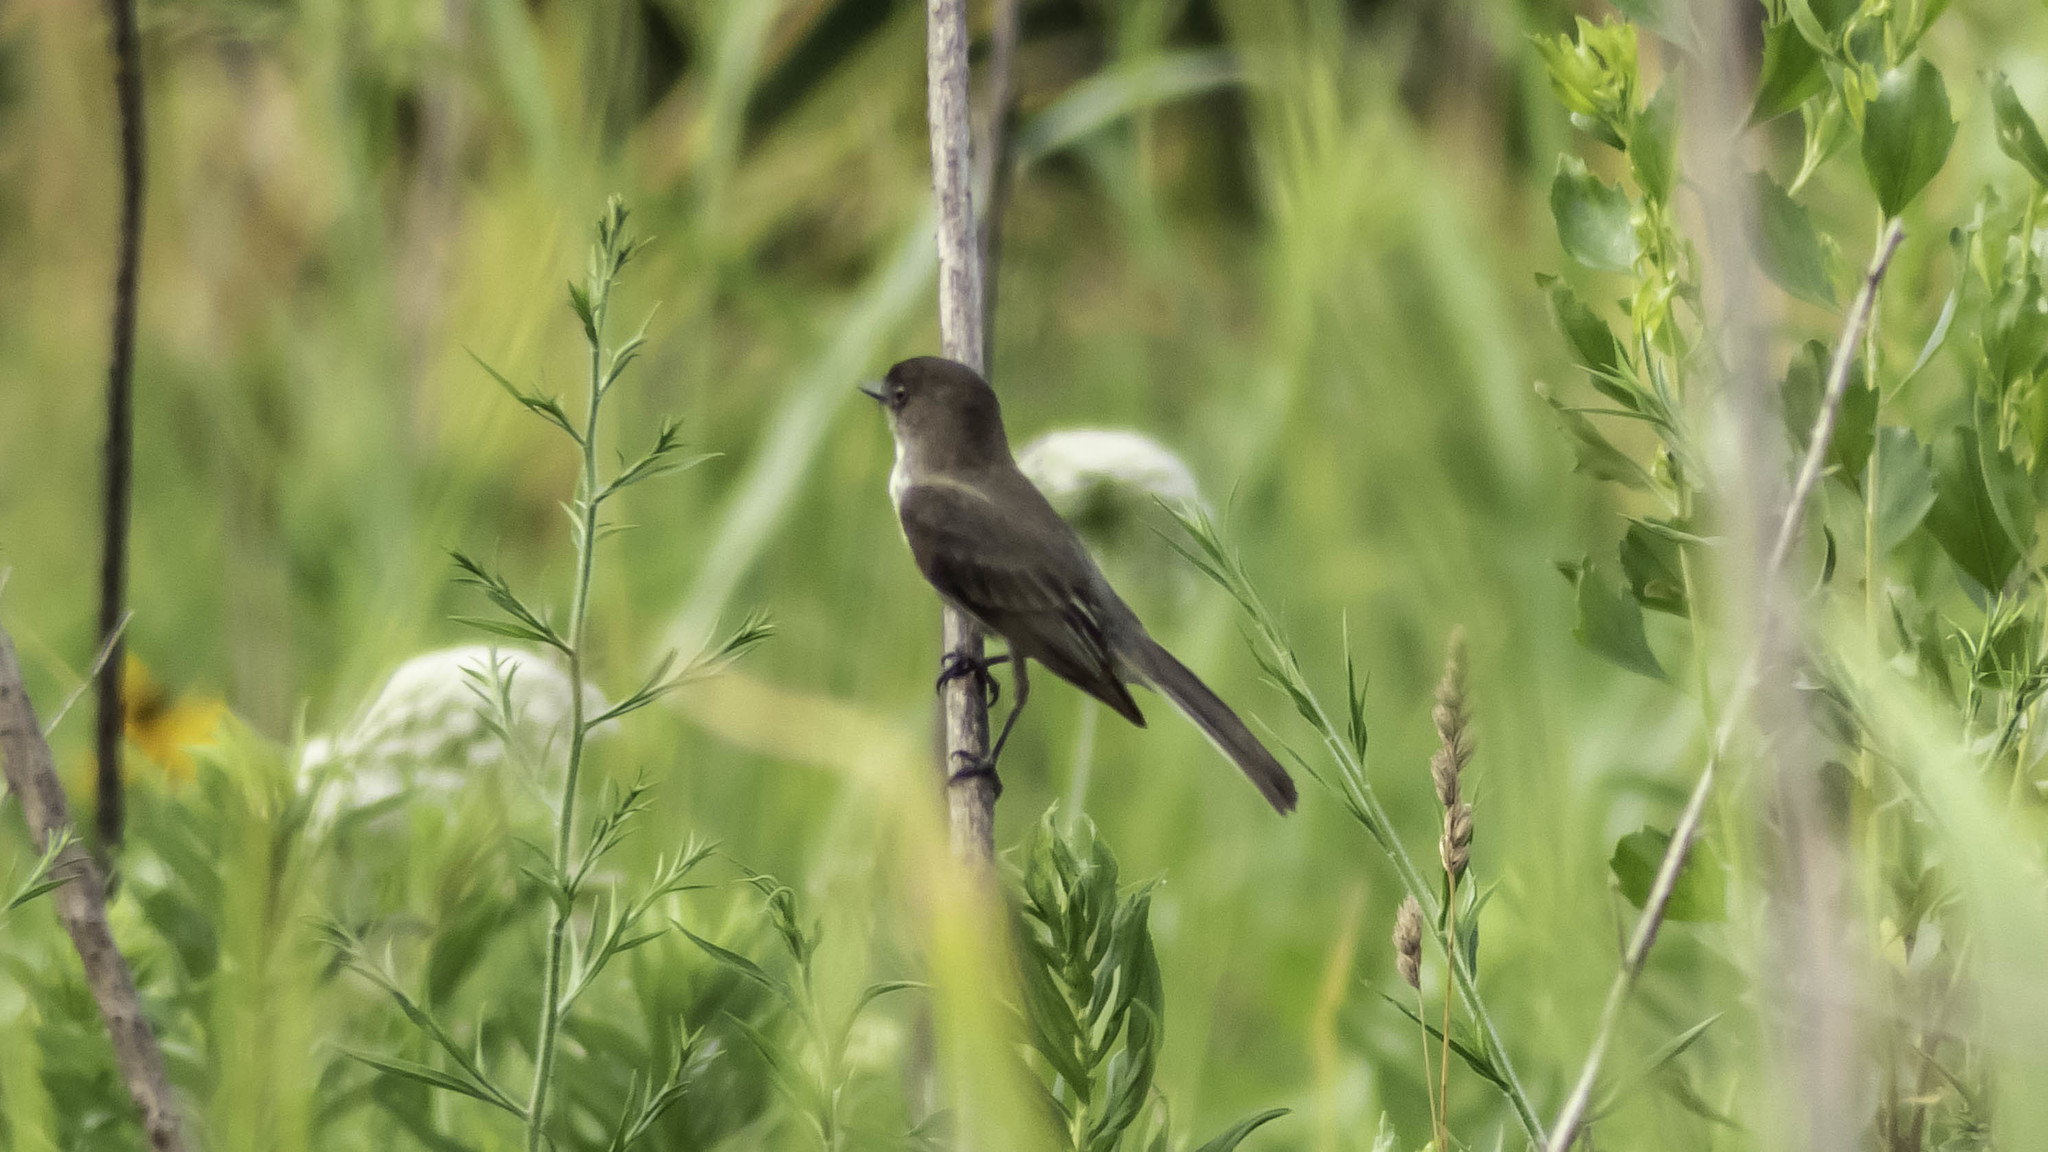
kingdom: Animalia
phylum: Chordata
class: Aves
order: Passeriformes
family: Tyrannidae
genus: Sayornis
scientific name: Sayornis phoebe
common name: Eastern phoebe
